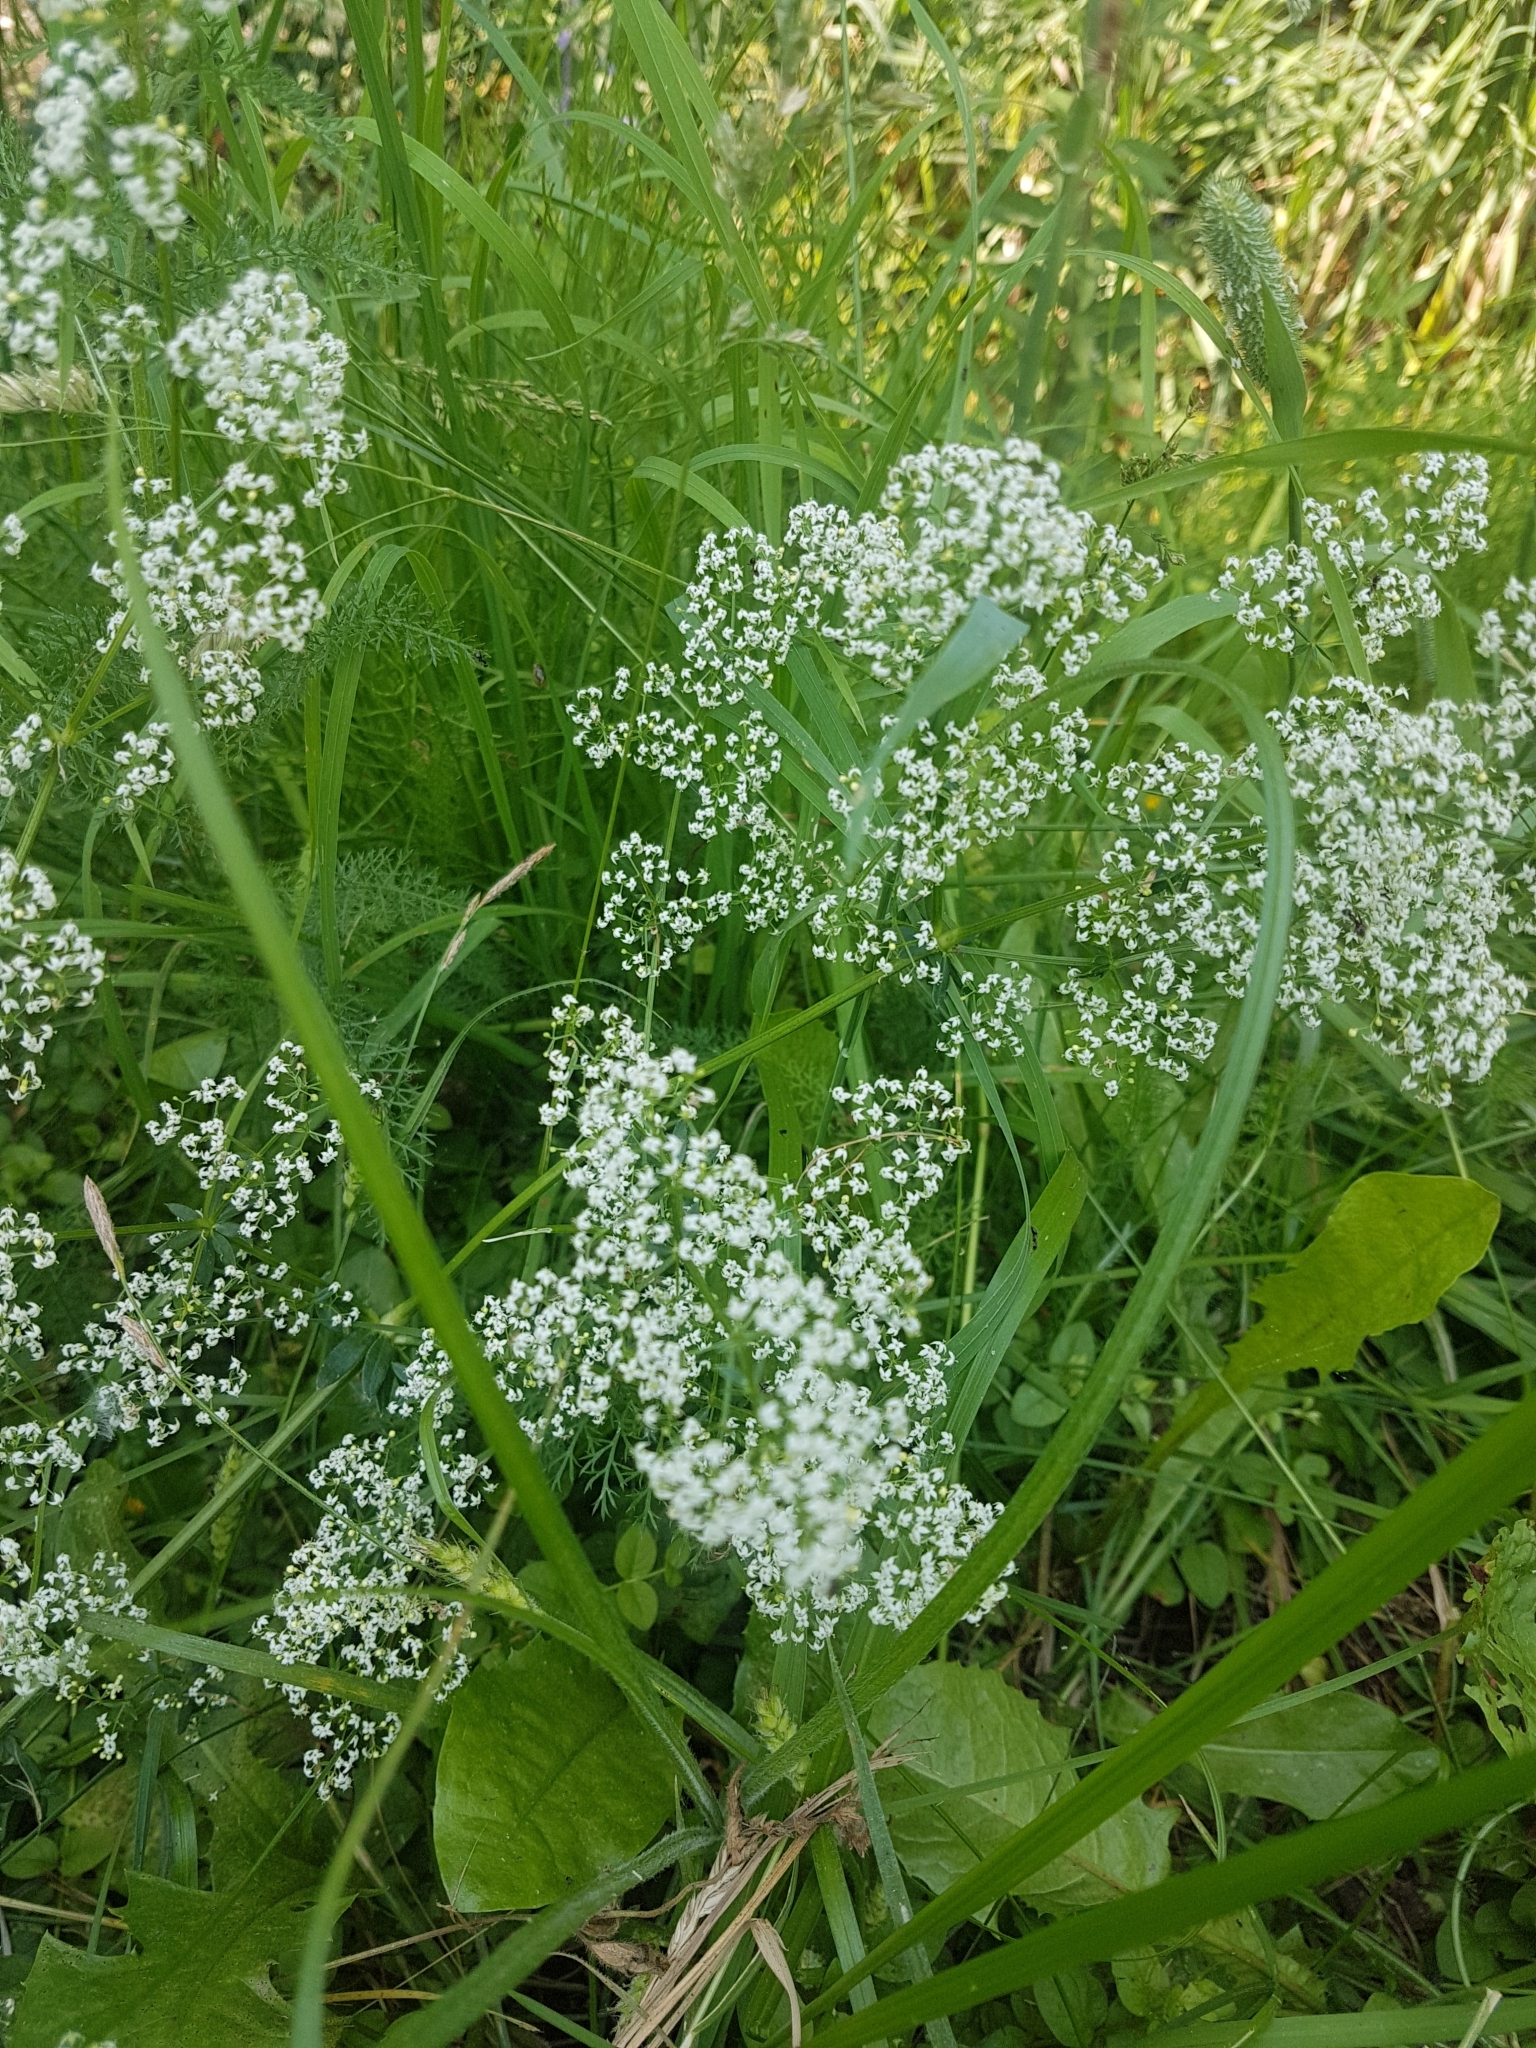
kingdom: Plantae
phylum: Tracheophyta
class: Magnoliopsida
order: Gentianales
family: Rubiaceae
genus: Galium
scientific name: Galium mollugo
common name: Hedge bedstraw
